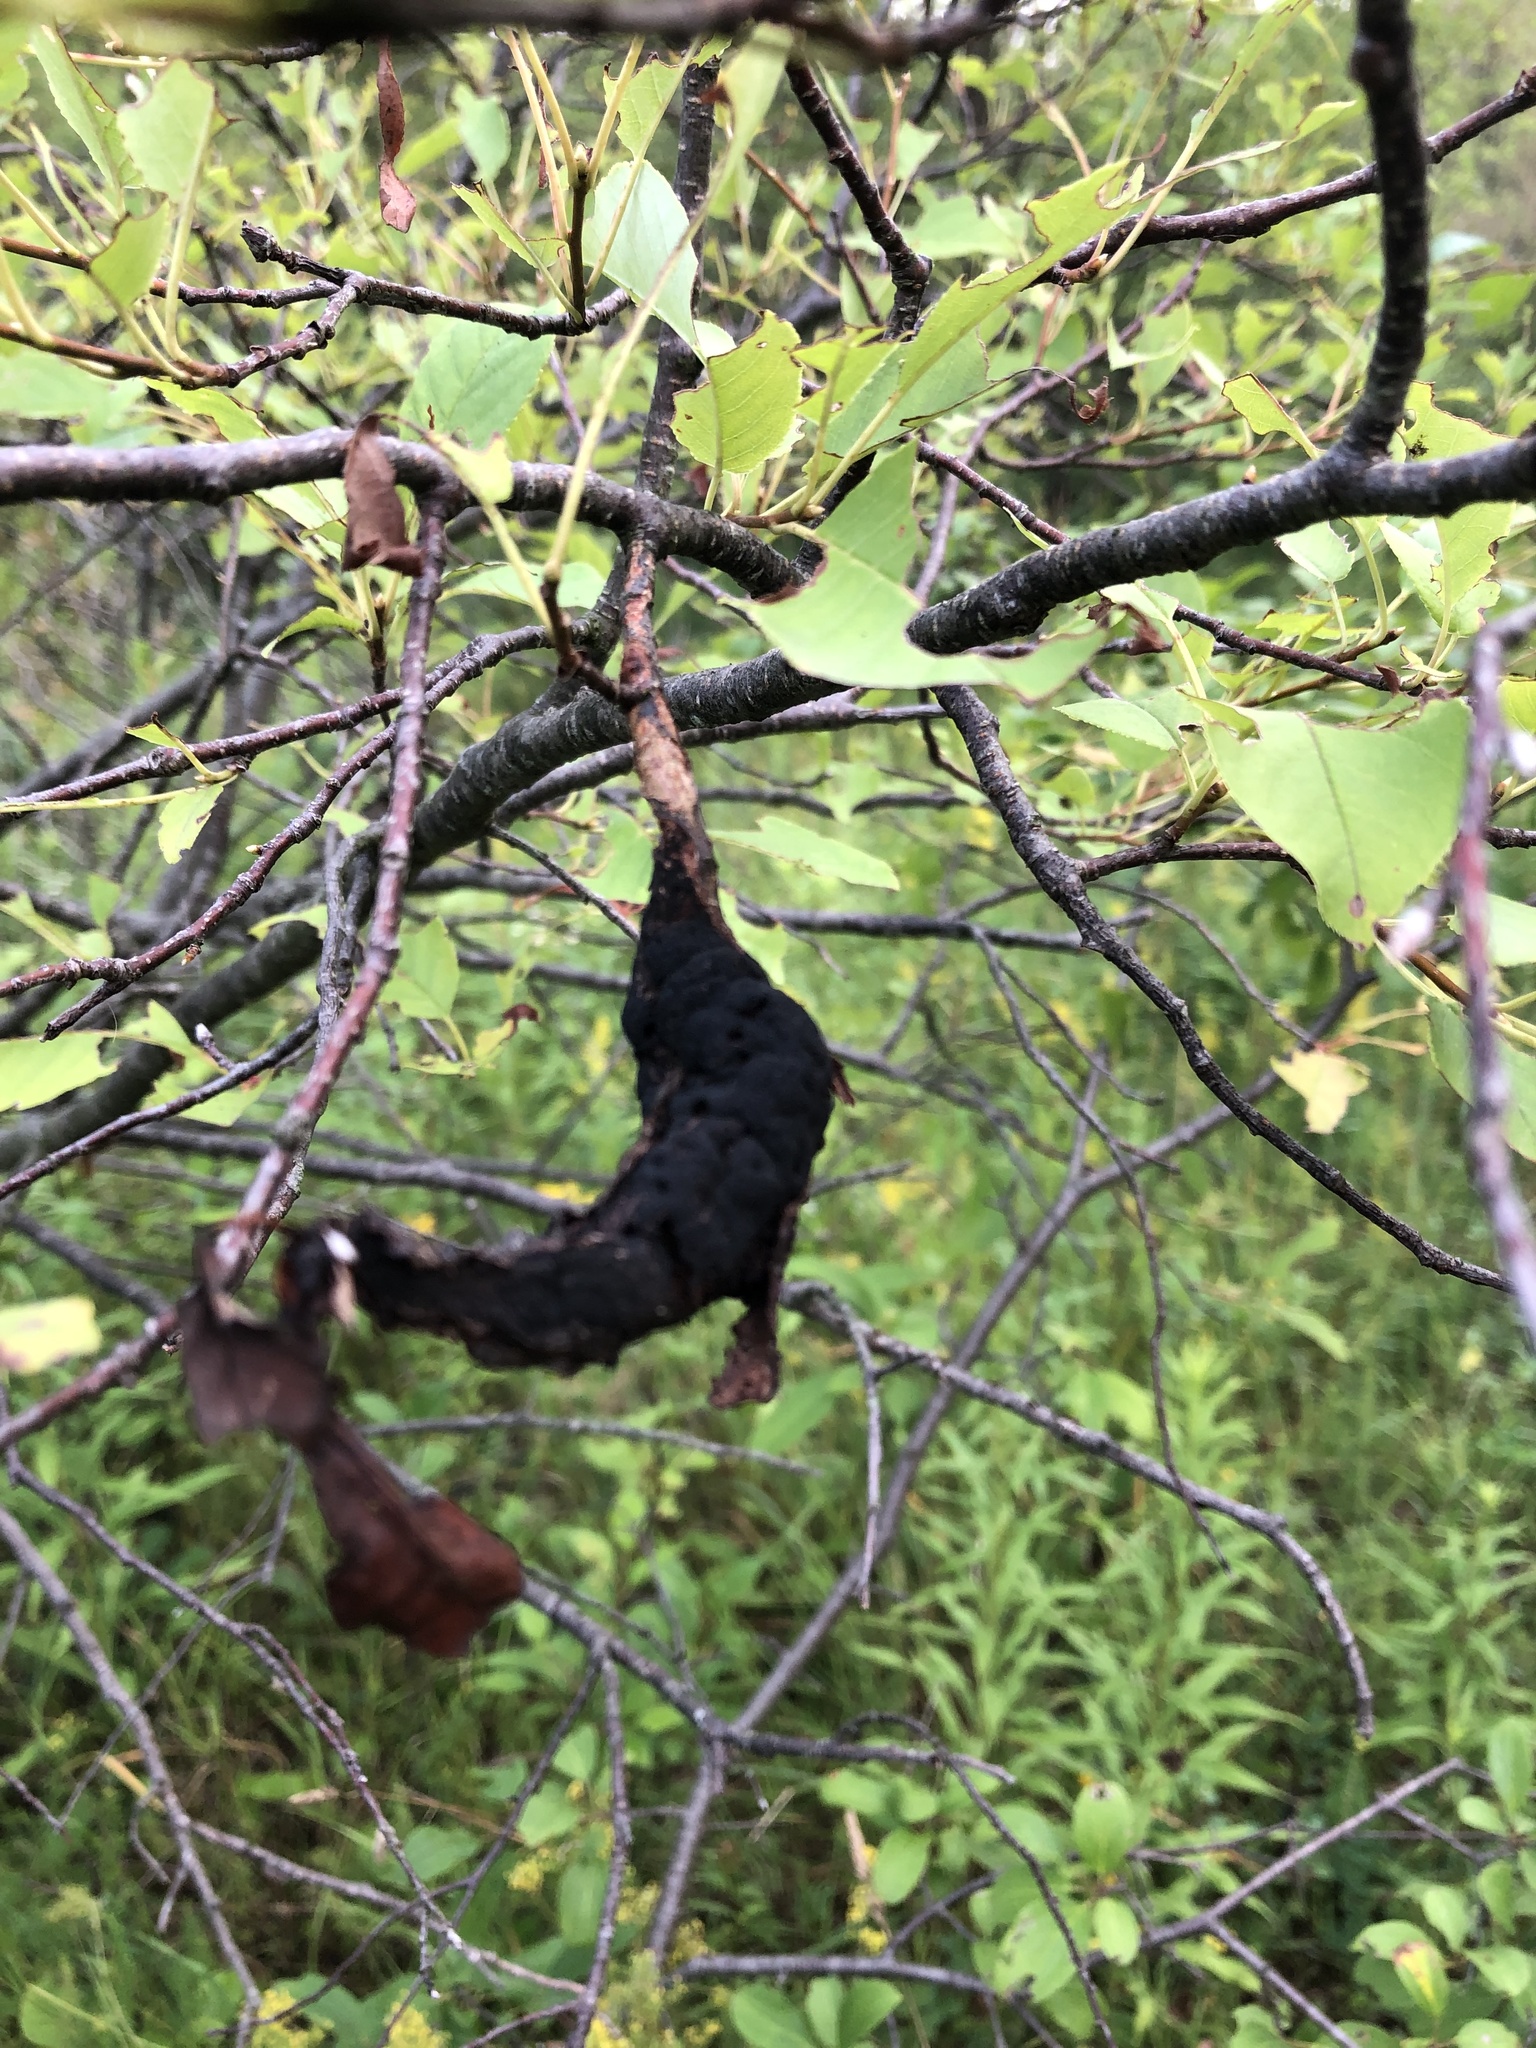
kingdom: Fungi
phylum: Ascomycota
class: Dothideomycetes
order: Venturiales
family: Venturiaceae
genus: Apiosporina
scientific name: Apiosporina morbosa
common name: Black knot
